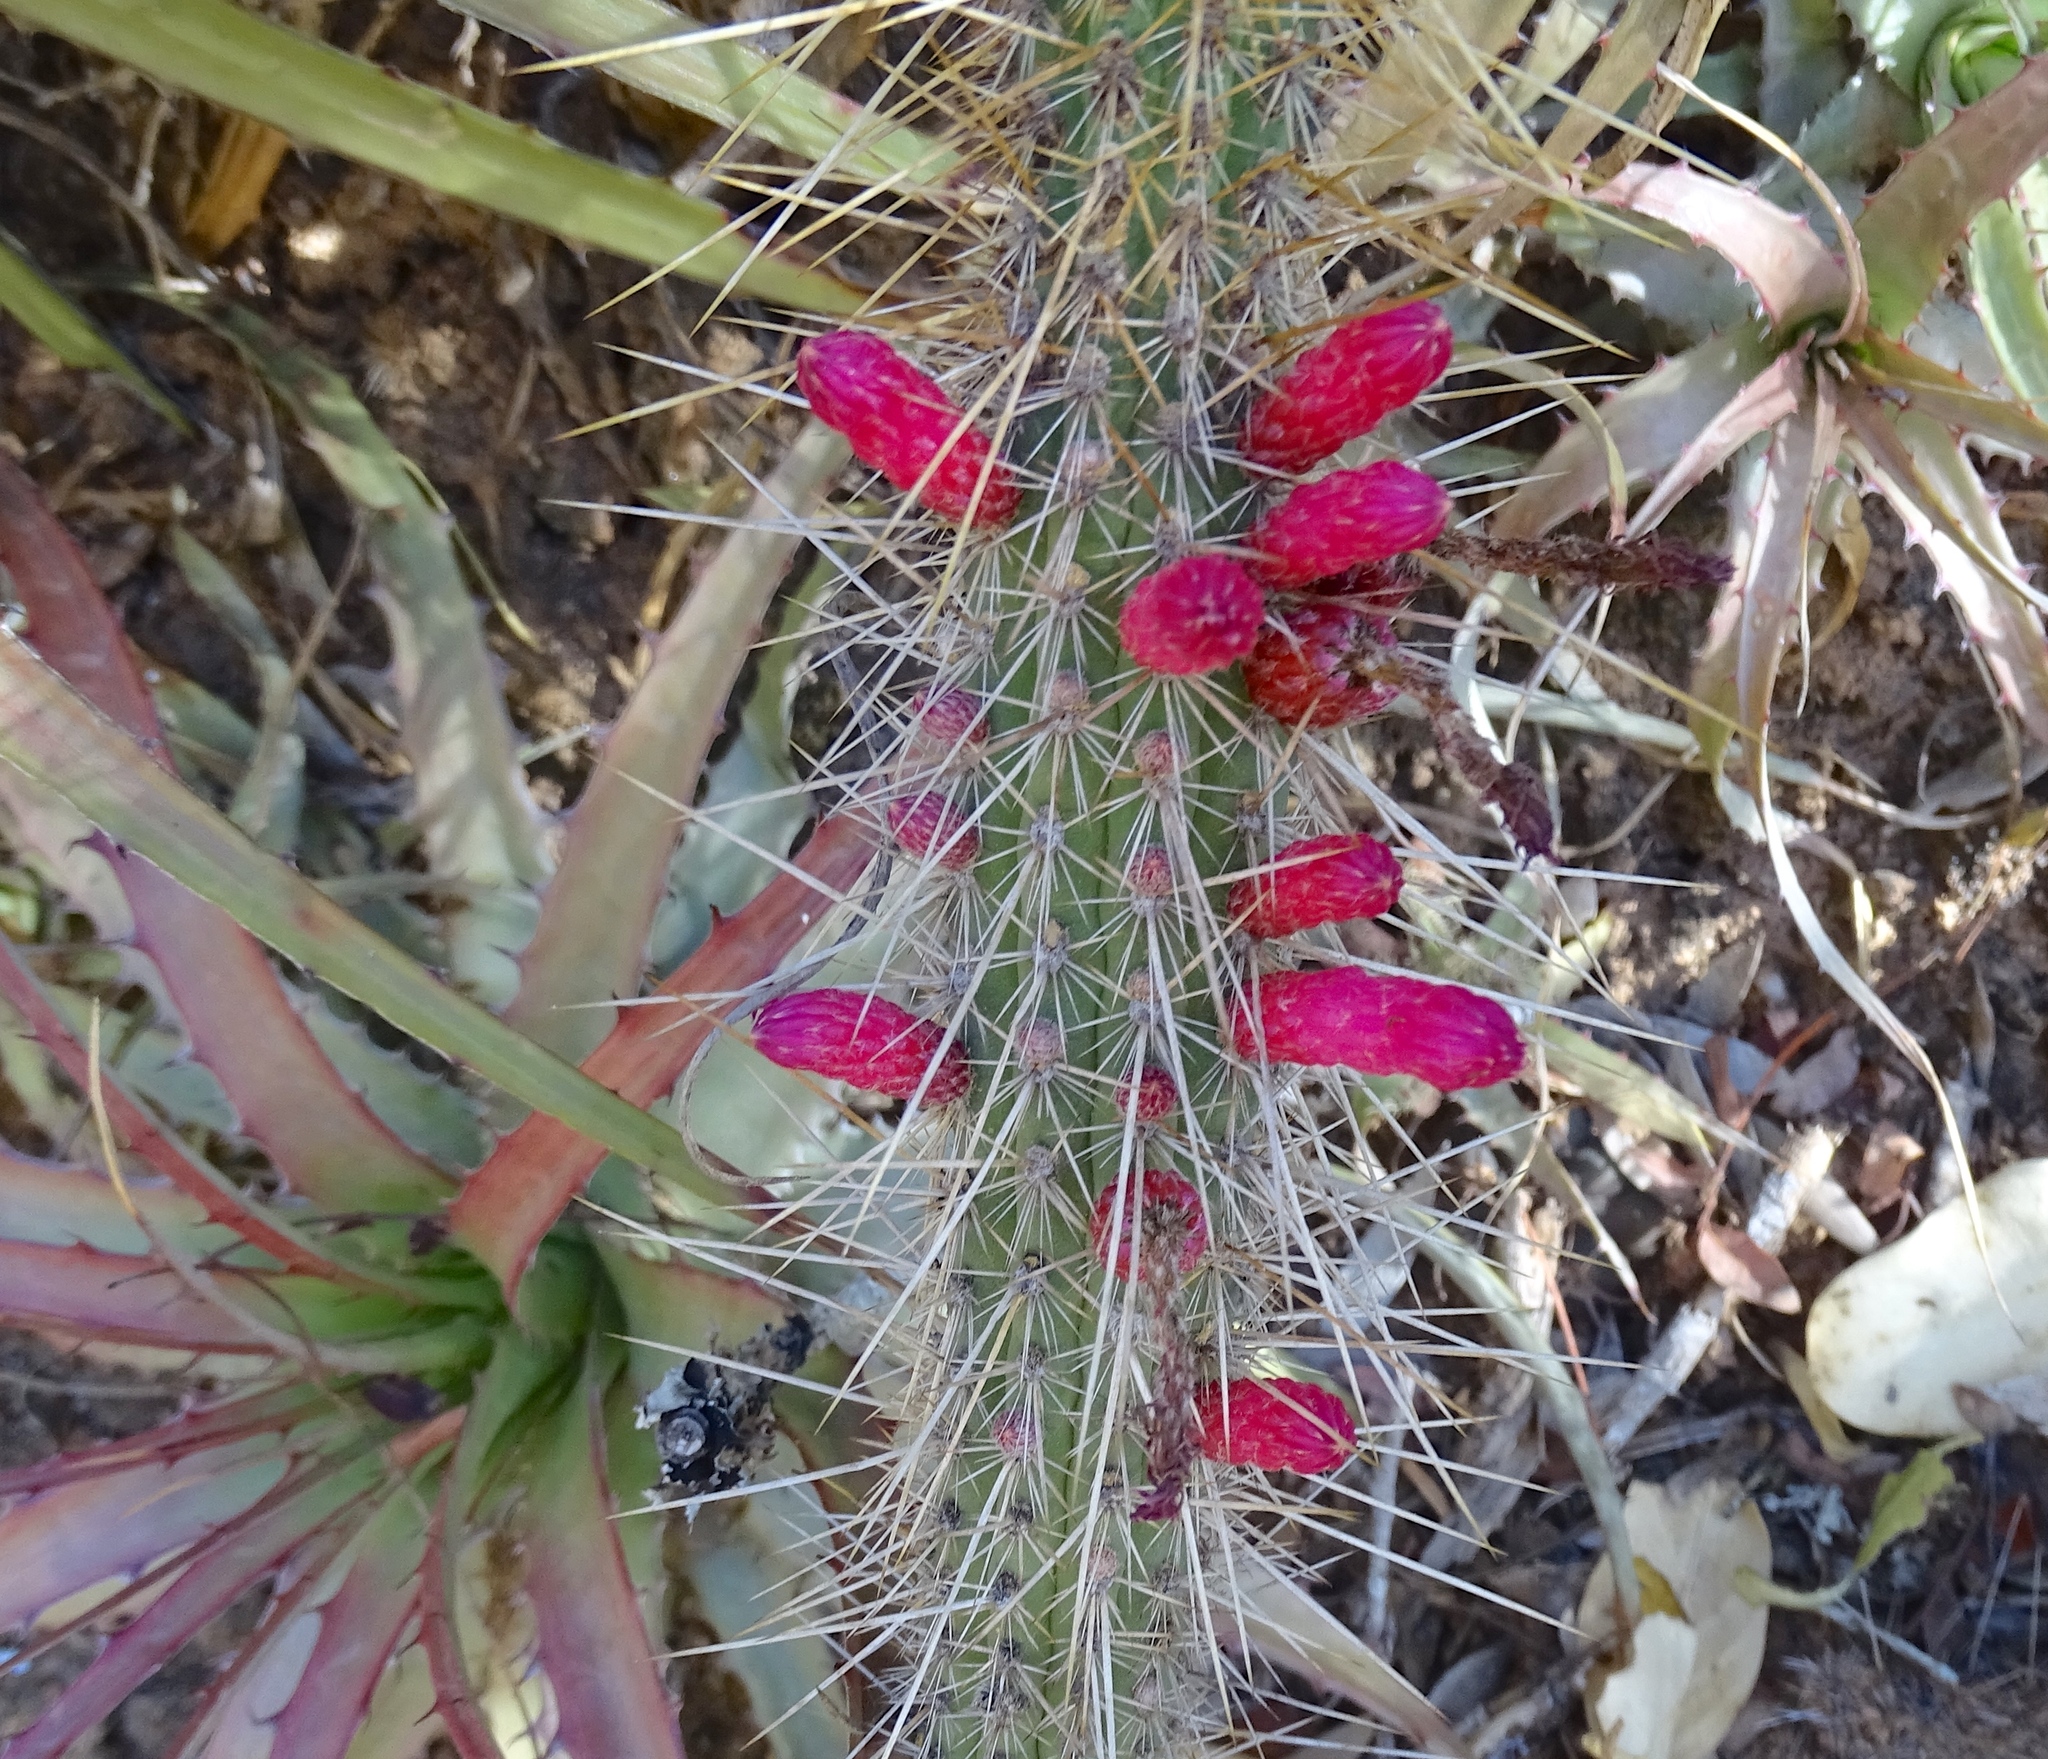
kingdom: Plantae
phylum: Tracheophyta
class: Magnoliopsida
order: Caryophyllales
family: Cactaceae
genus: Cleistocactus
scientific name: Cleistocactus candelilla
